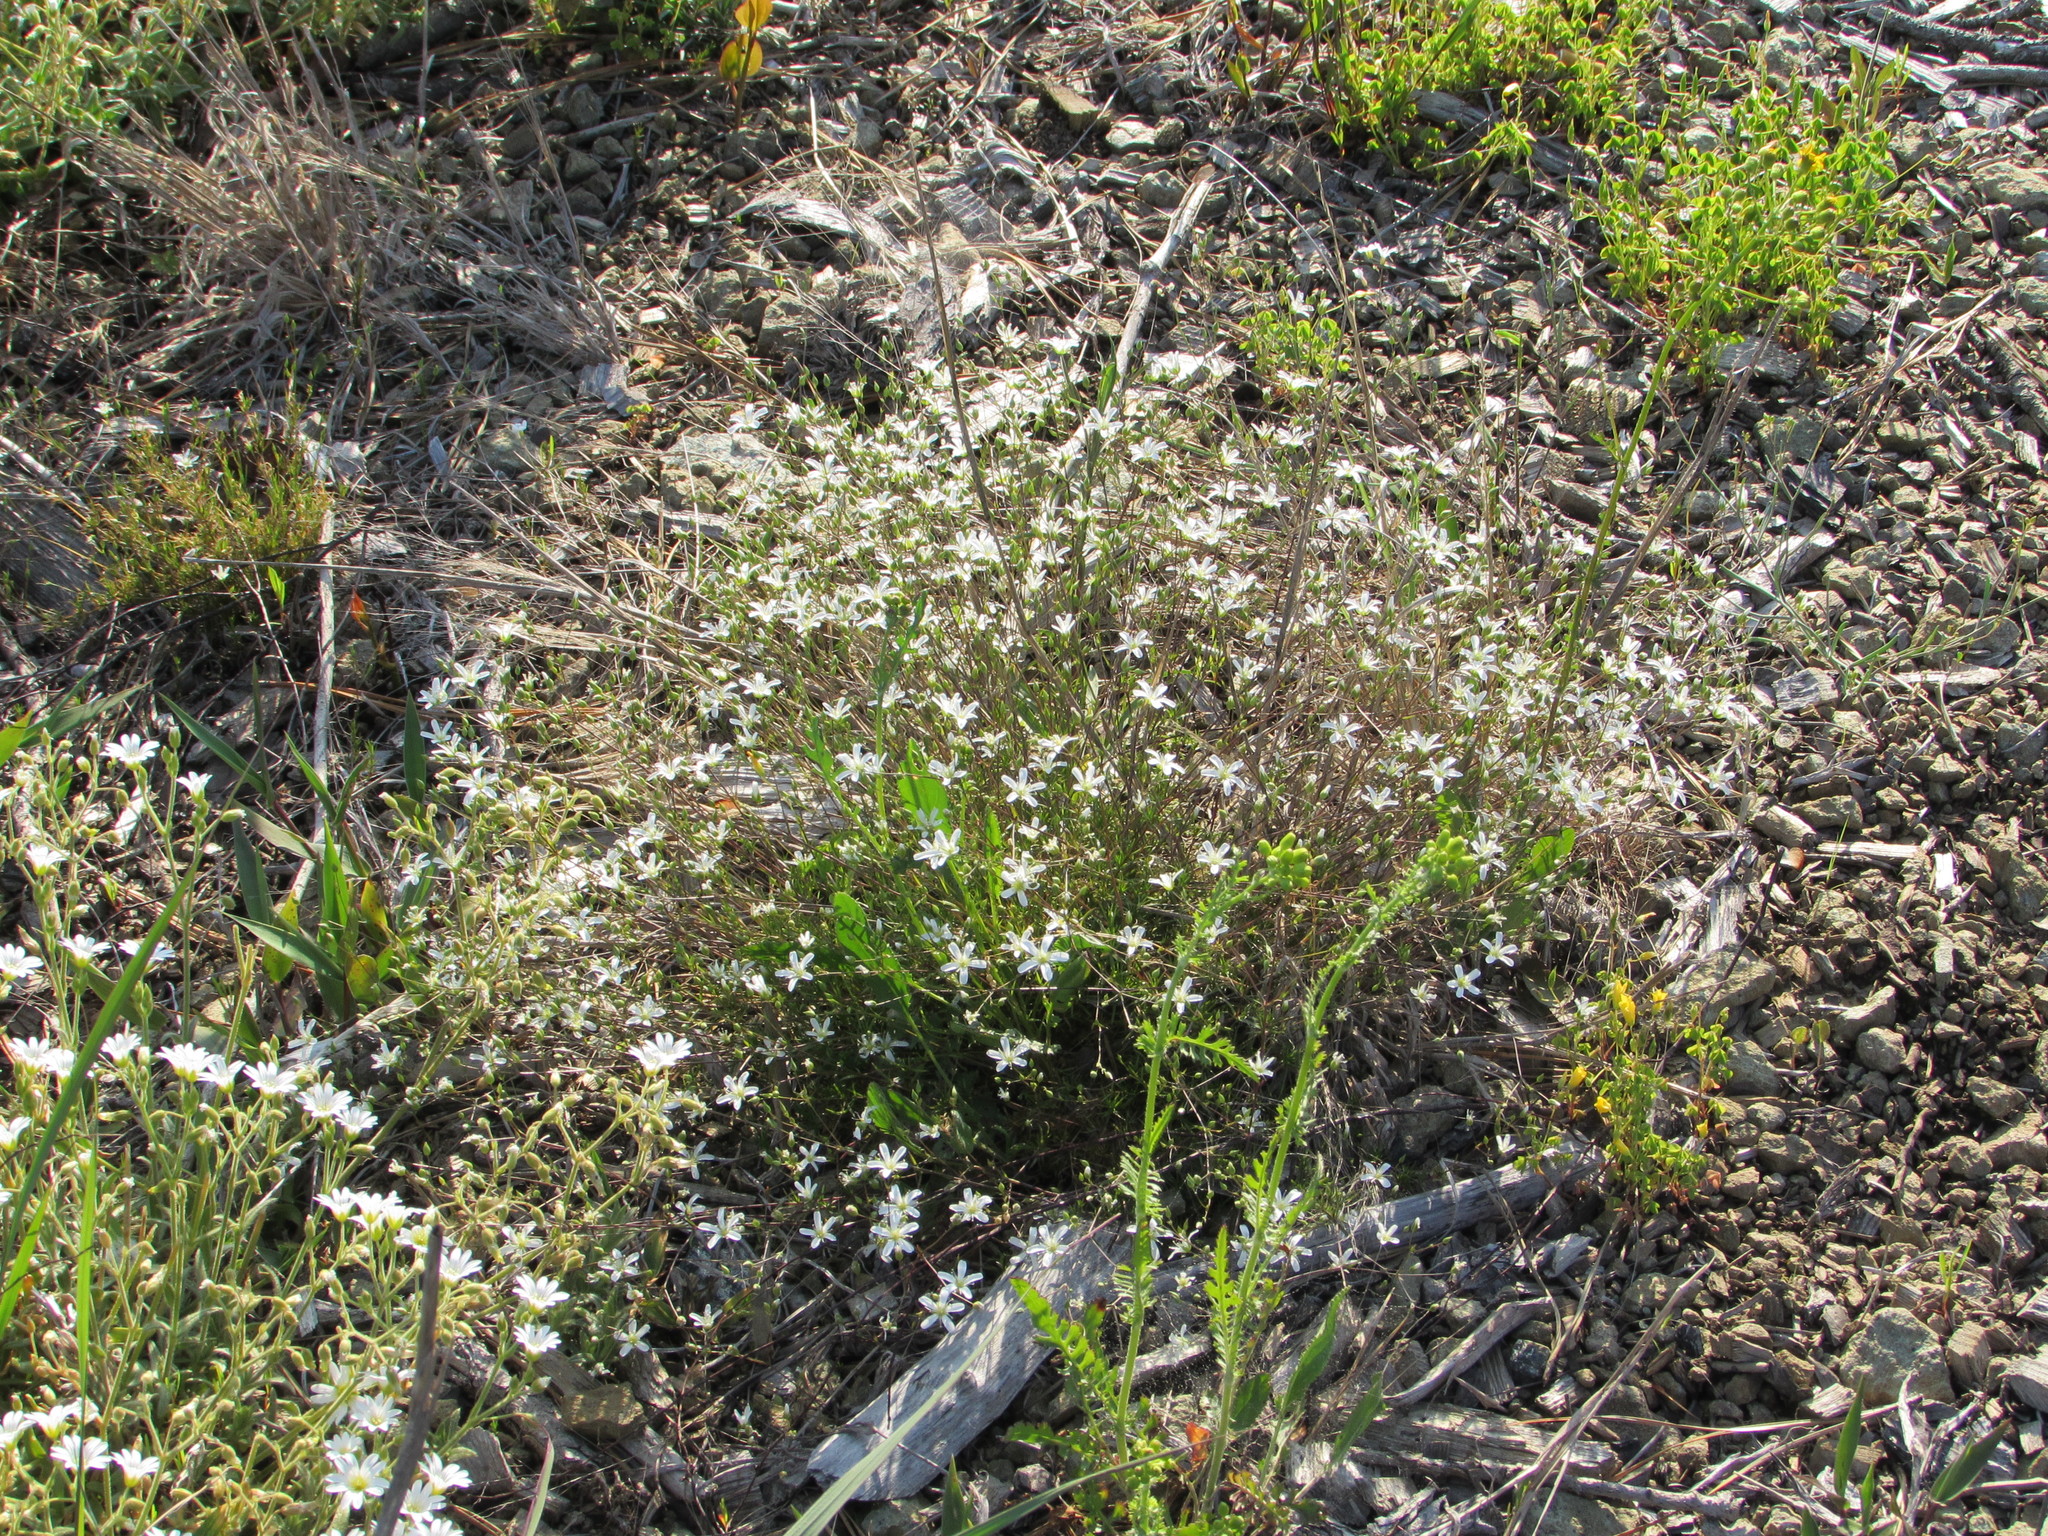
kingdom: Plantae
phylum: Tracheophyta
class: Magnoliopsida
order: Caryophyllales
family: Caryophyllaceae
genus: Sabulina
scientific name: Sabulina michauxii
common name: Michaux's stitchwort
